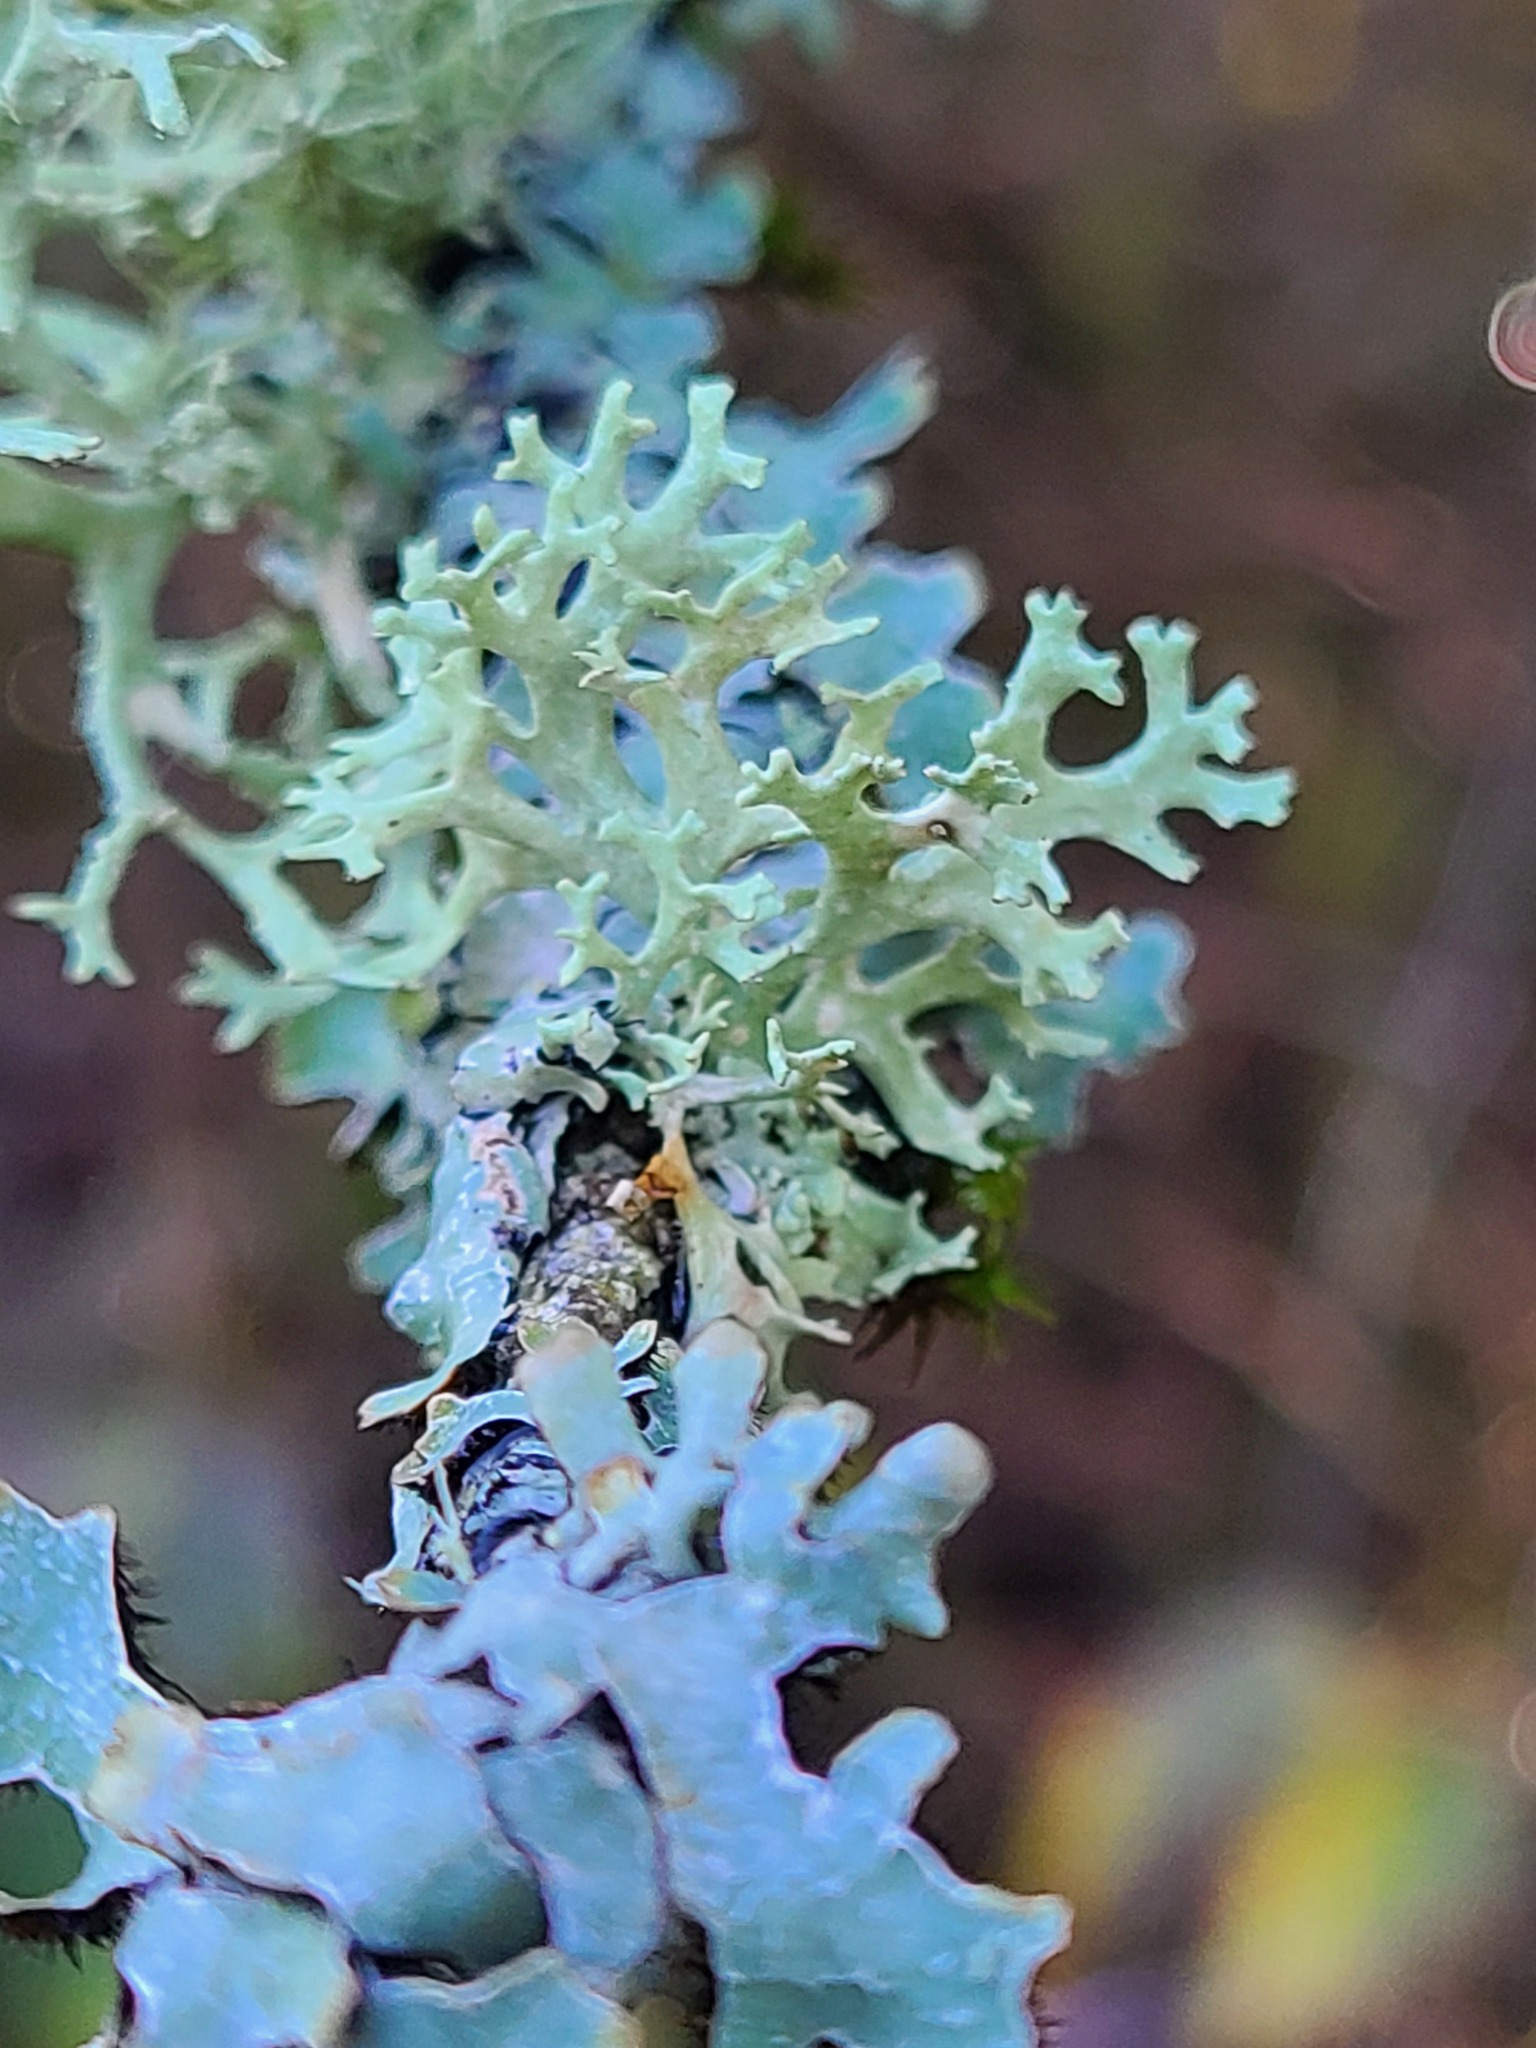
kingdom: Fungi
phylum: Ascomycota
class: Lecanoromycetes
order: Lecanorales
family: Parmeliaceae
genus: Evernia
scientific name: Evernia prunastri
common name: Oak moss
